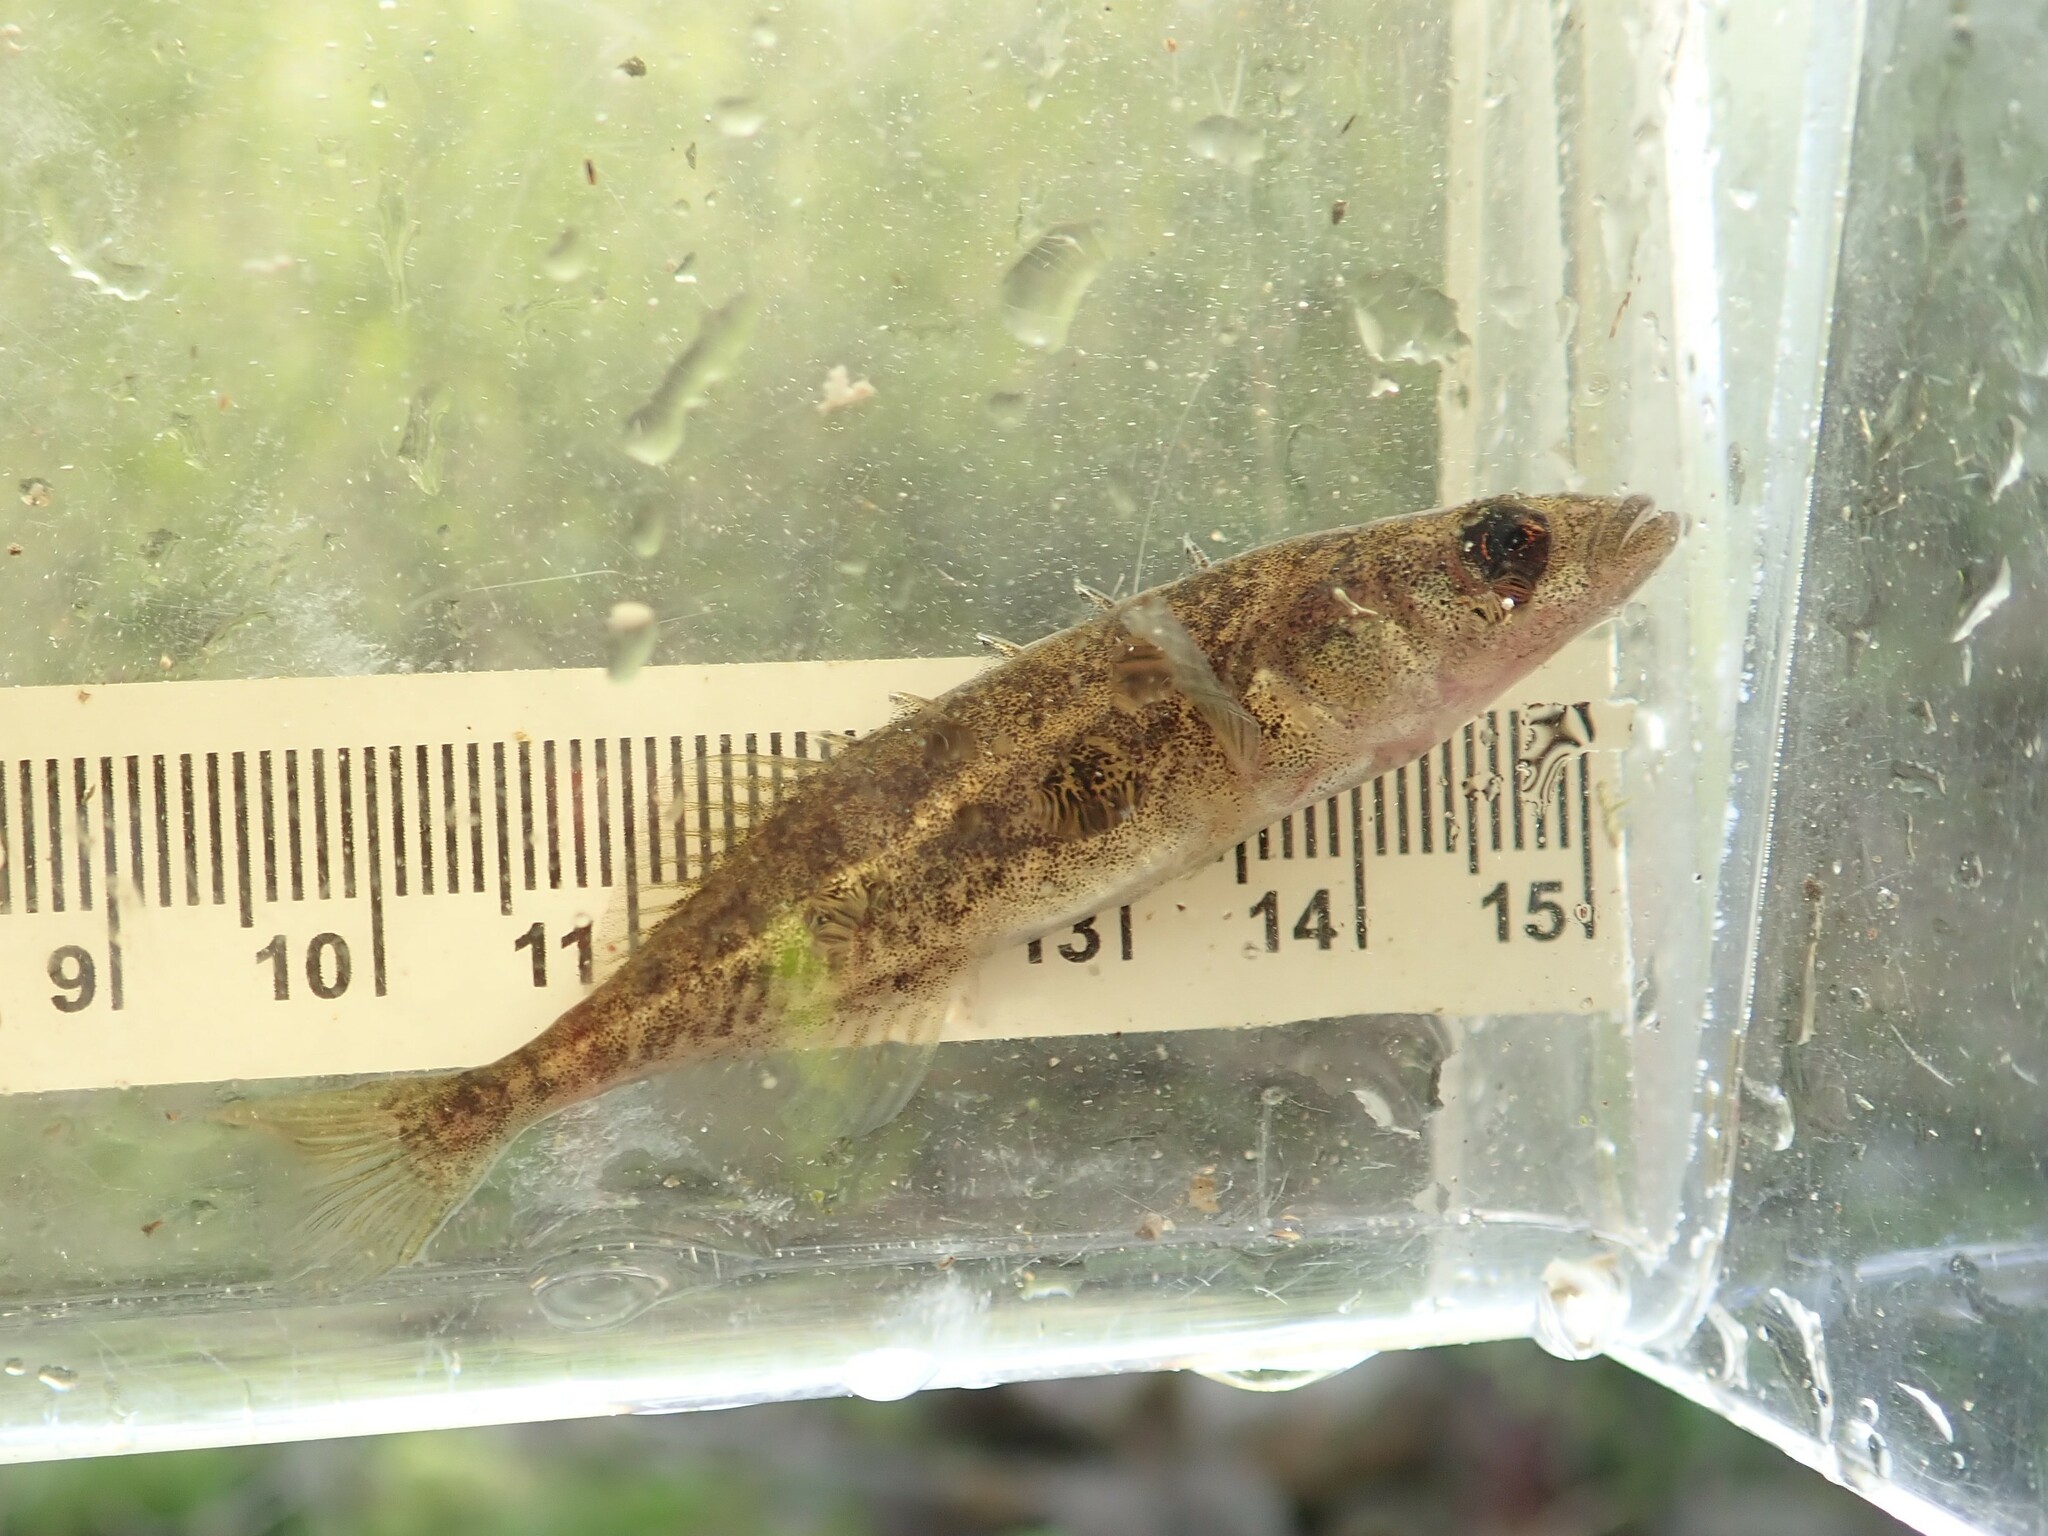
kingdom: Animalia
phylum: Chordata
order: Gasterosteiformes
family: Gasterosteidae
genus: Culaea
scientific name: Culaea inconstans
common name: Brook stickleback
